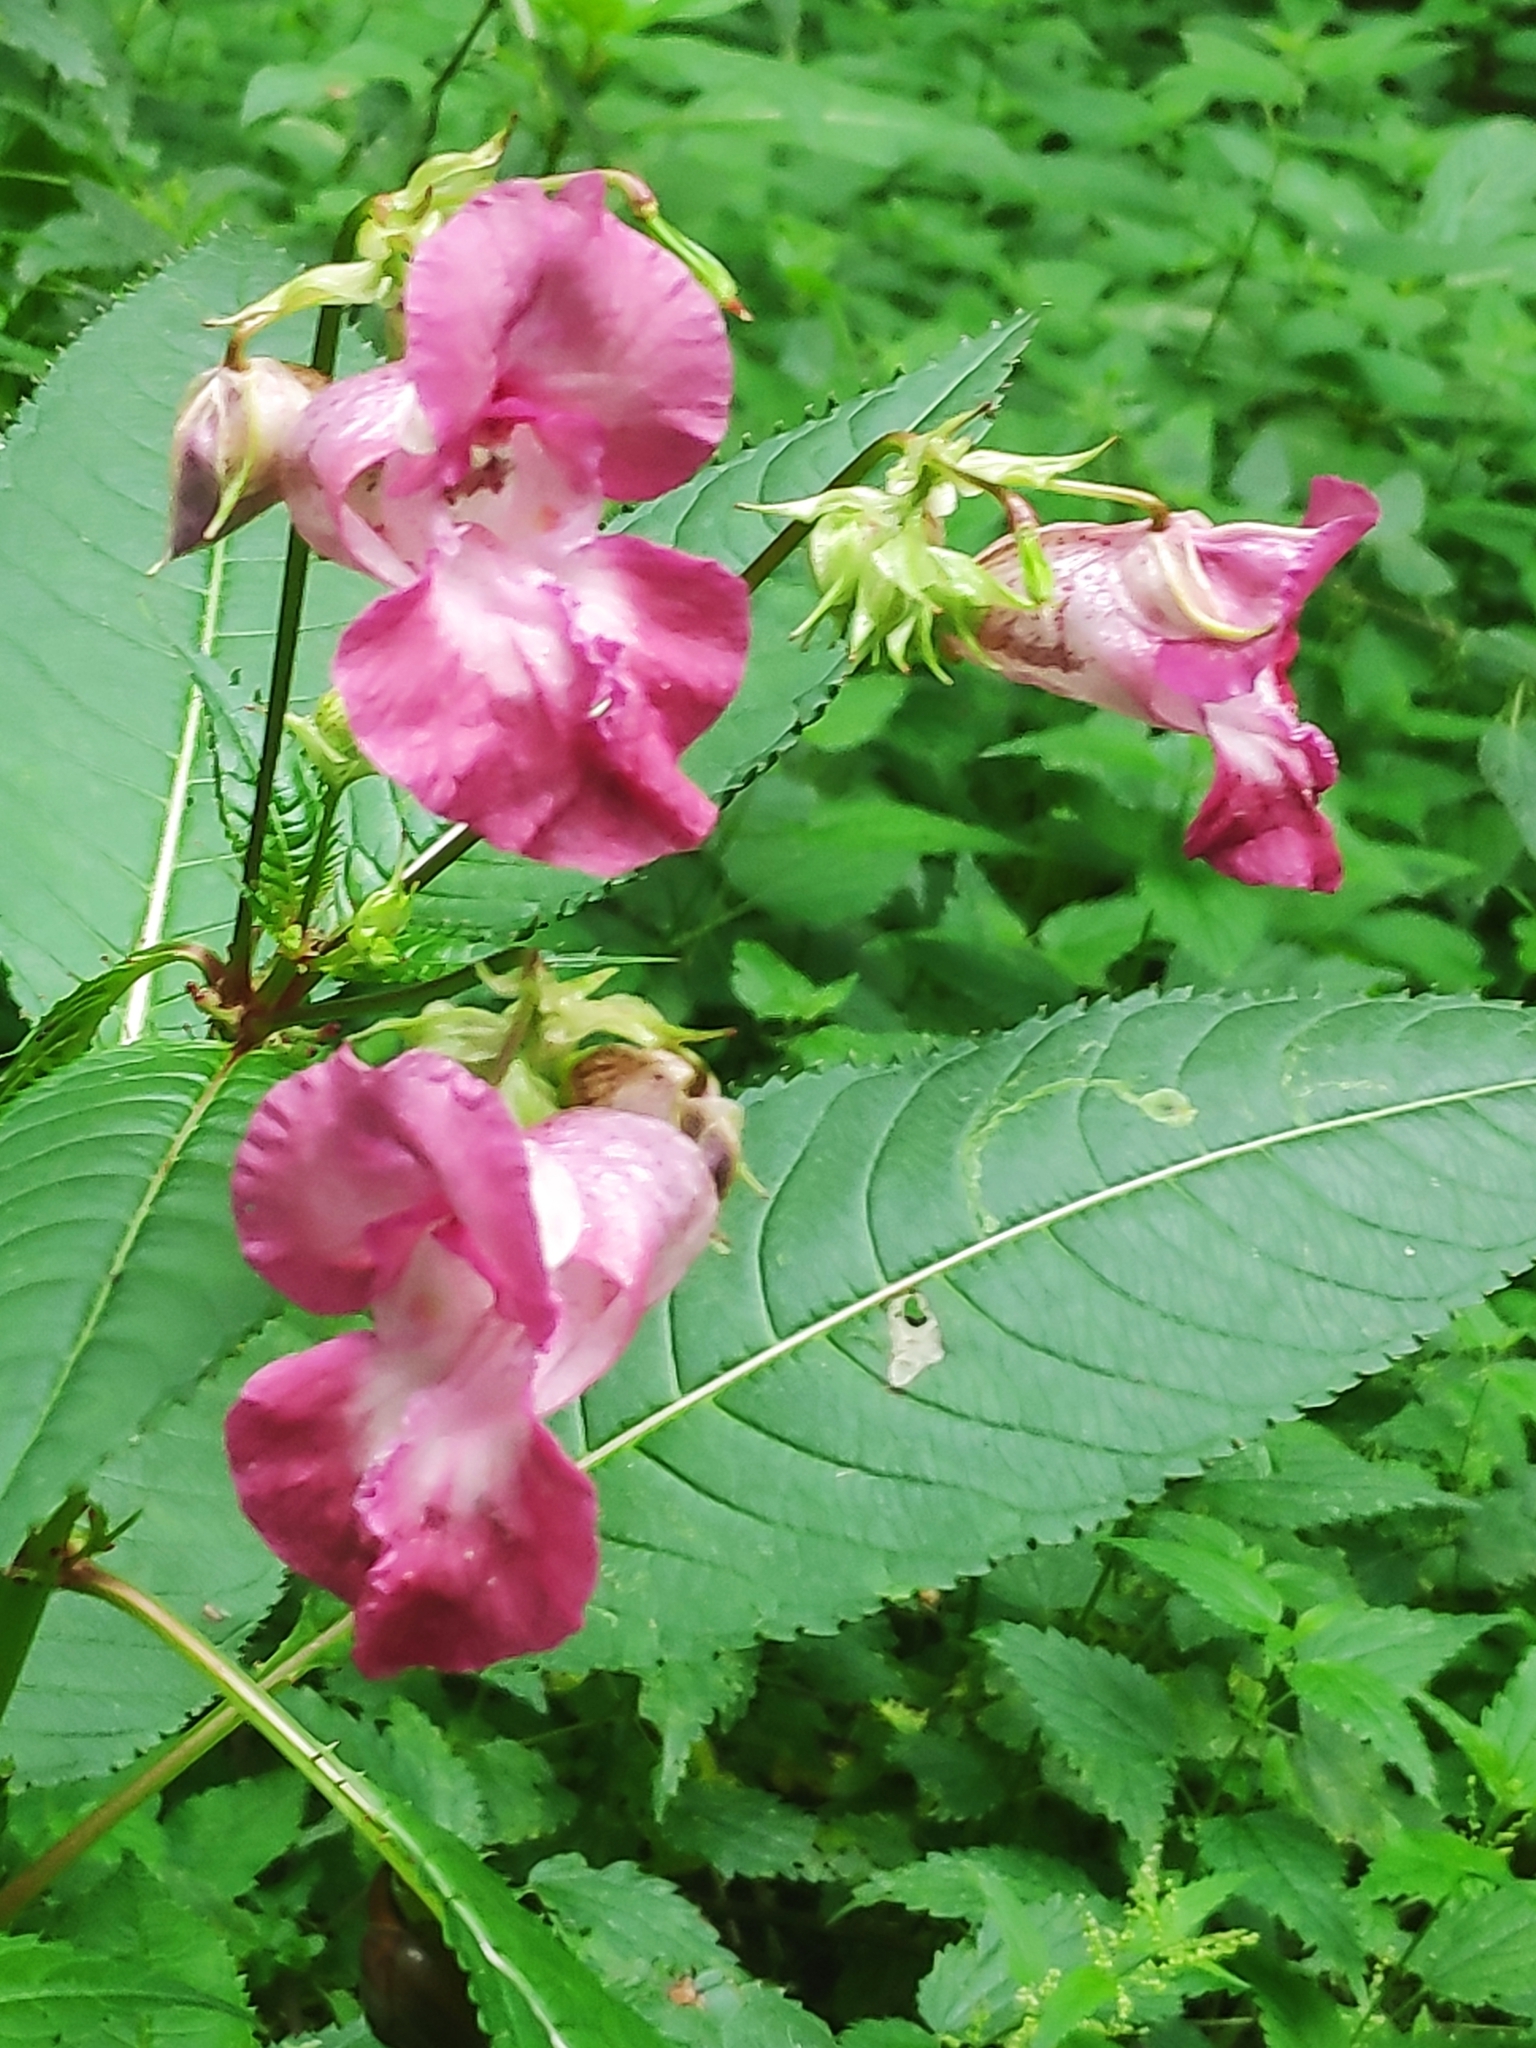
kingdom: Plantae
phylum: Tracheophyta
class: Magnoliopsida
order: Ericales
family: Balsaminaceae
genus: Impatiens
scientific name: Impatiens glandulifera
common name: Himalayan balsam
